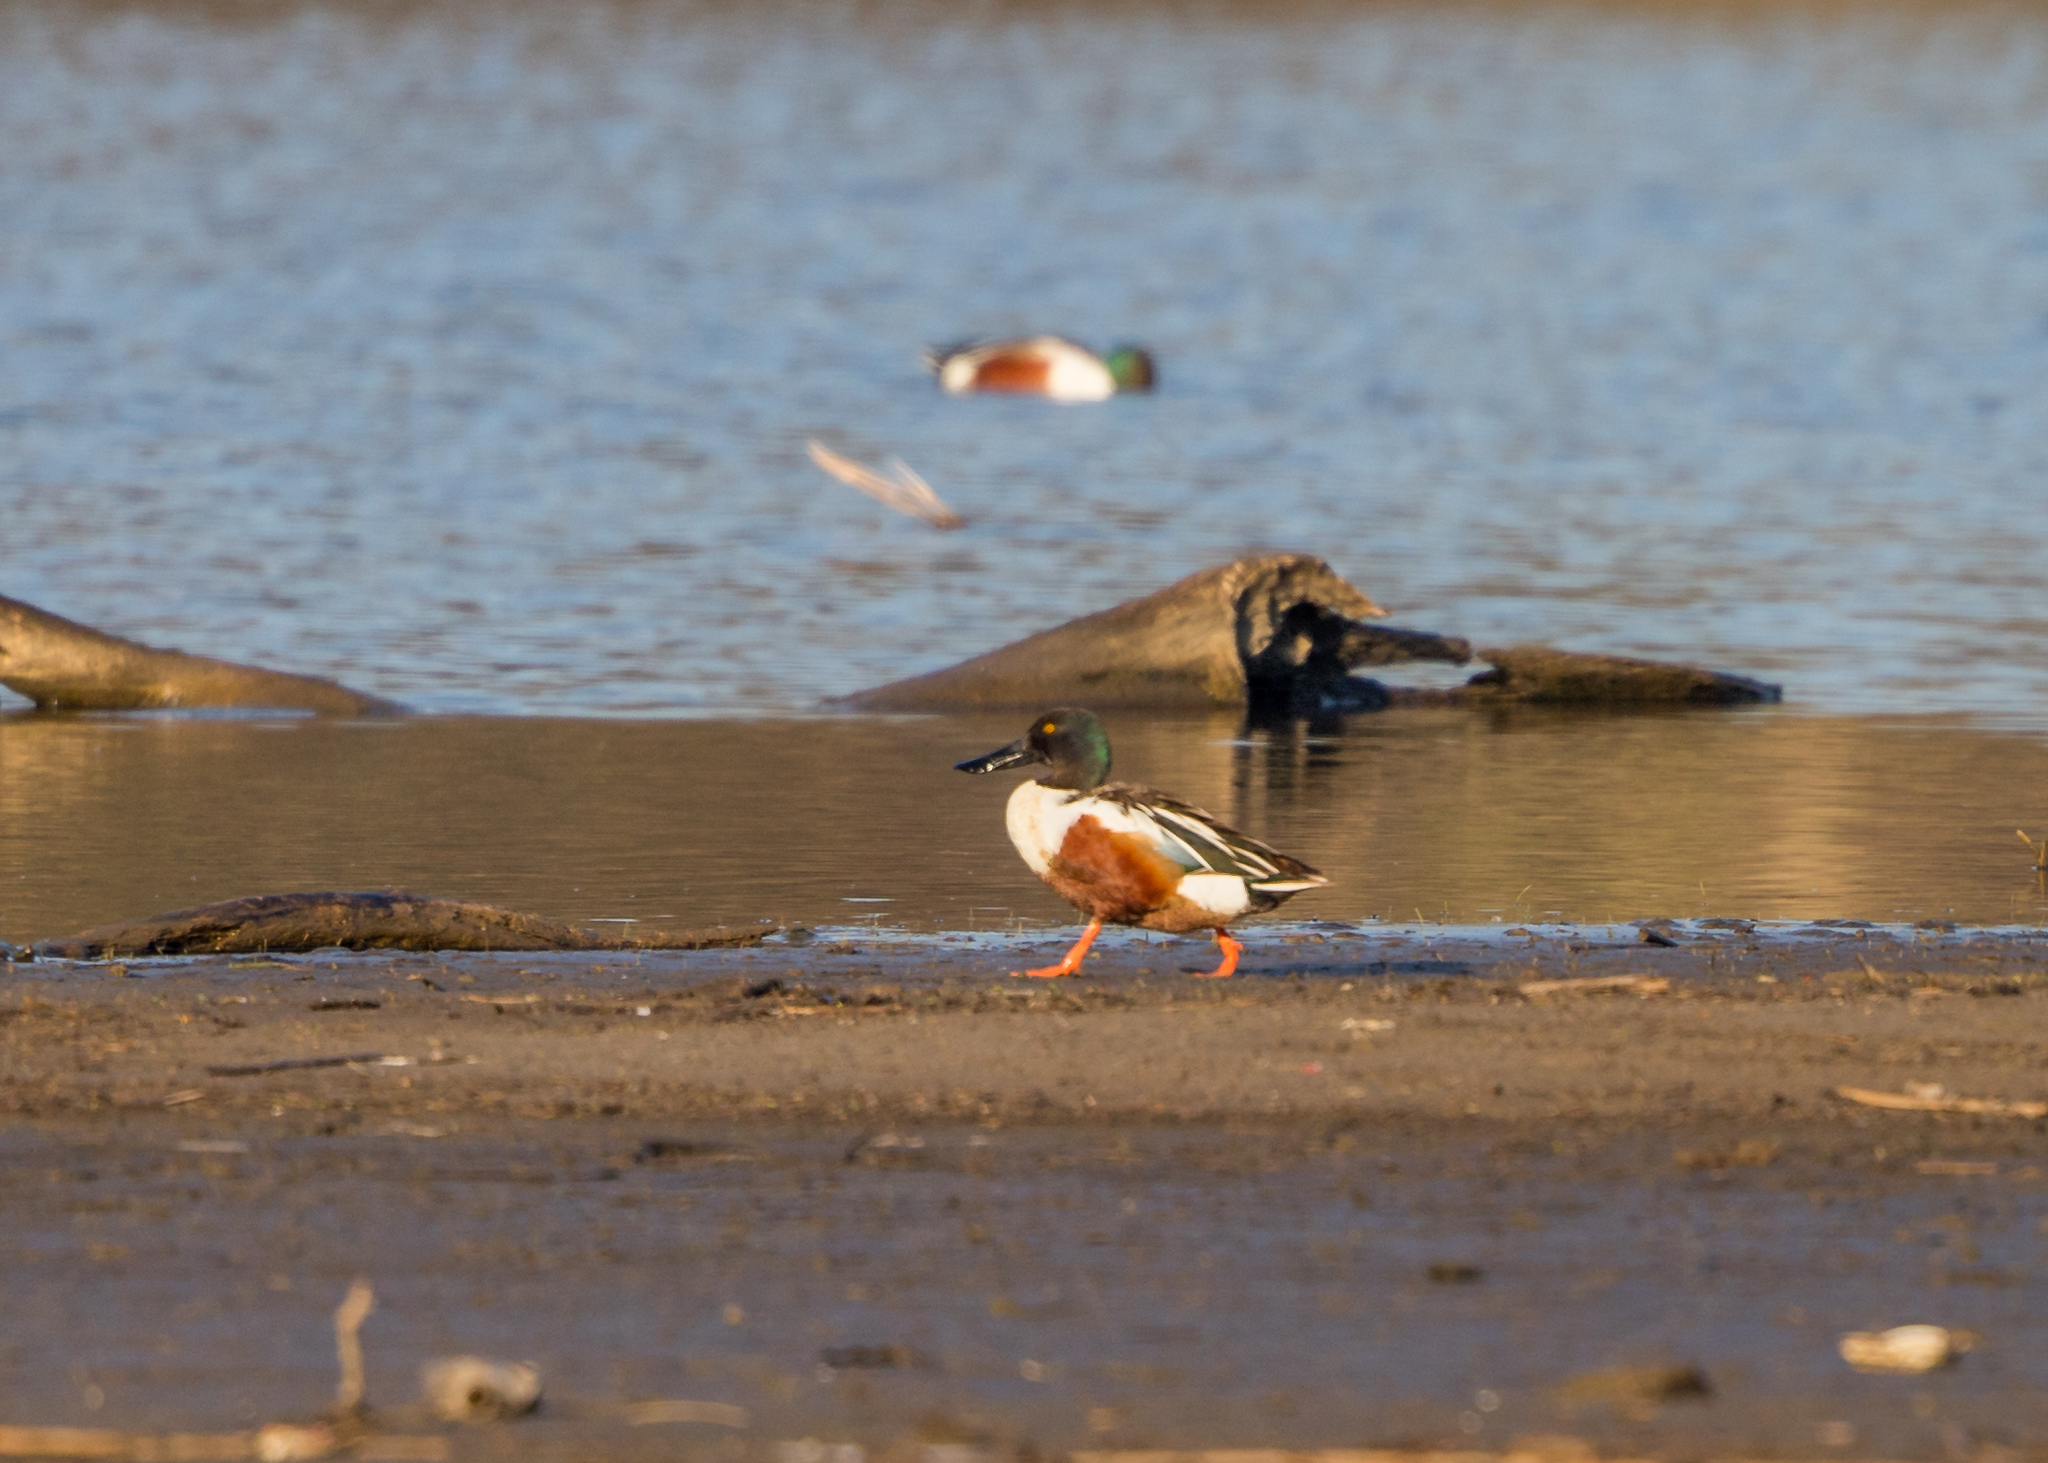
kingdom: Animalia
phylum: Chordata
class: Aves
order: Anseriformes
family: Anatidae
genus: Spatula
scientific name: Spatula clypeata
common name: Northern shoveler
